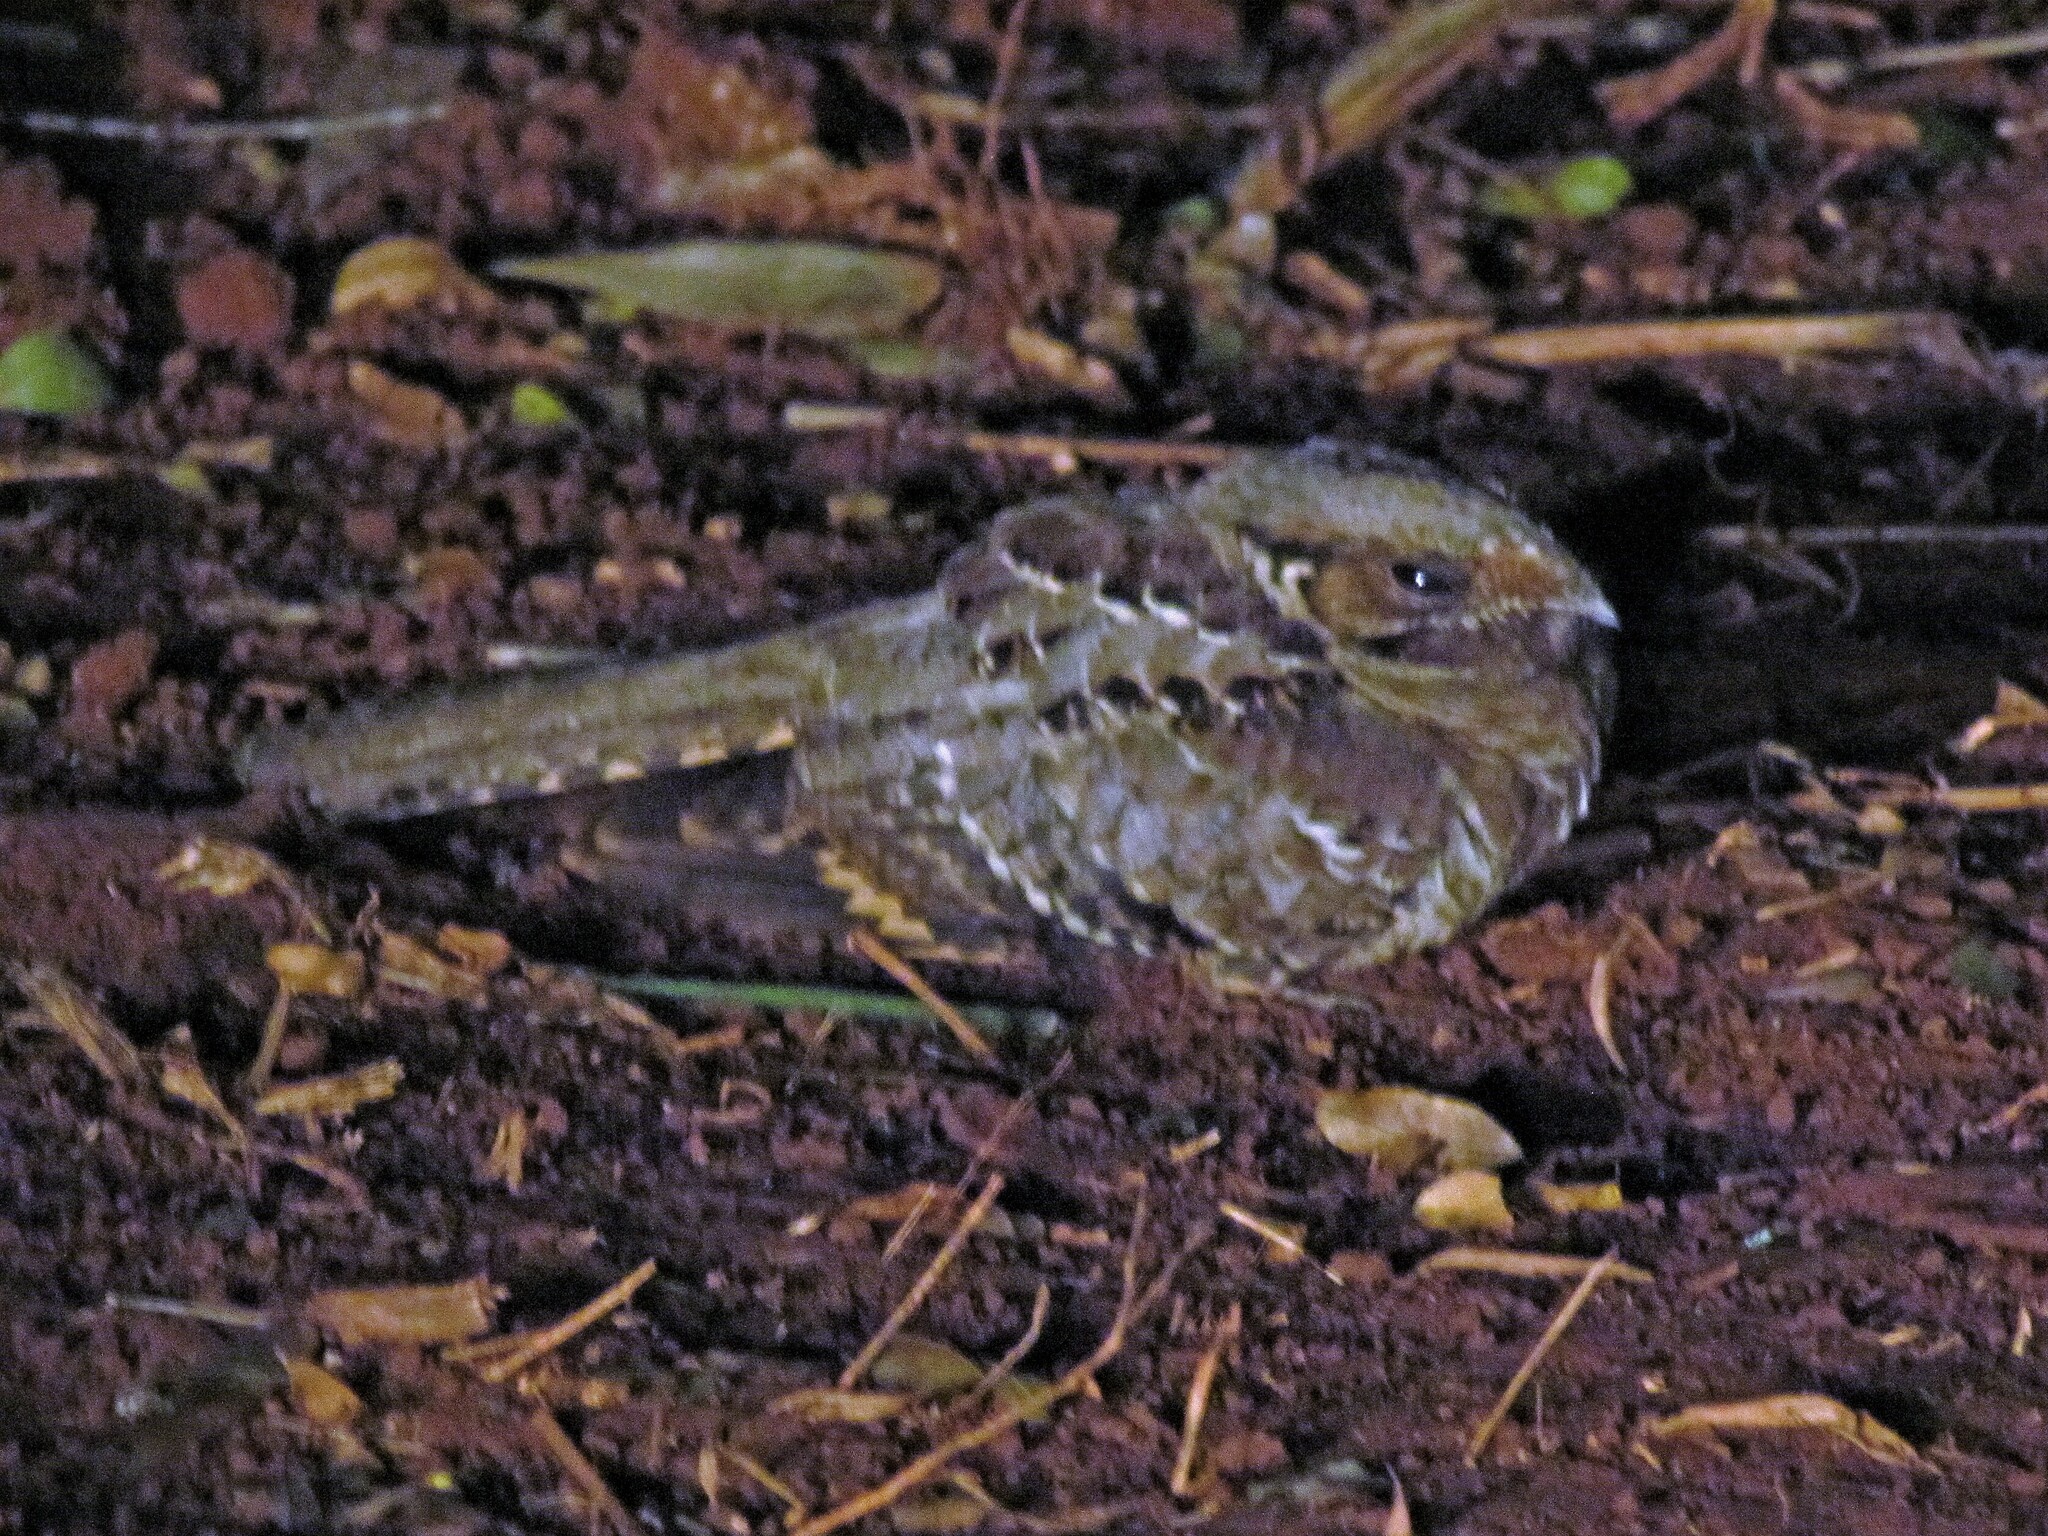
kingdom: Animalia
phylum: Chordata
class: Aves
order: Caprimulgiformes
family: Caprimulgidae
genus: Nyctidromus
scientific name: Nyctidromus albicollis
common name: Pauraque
